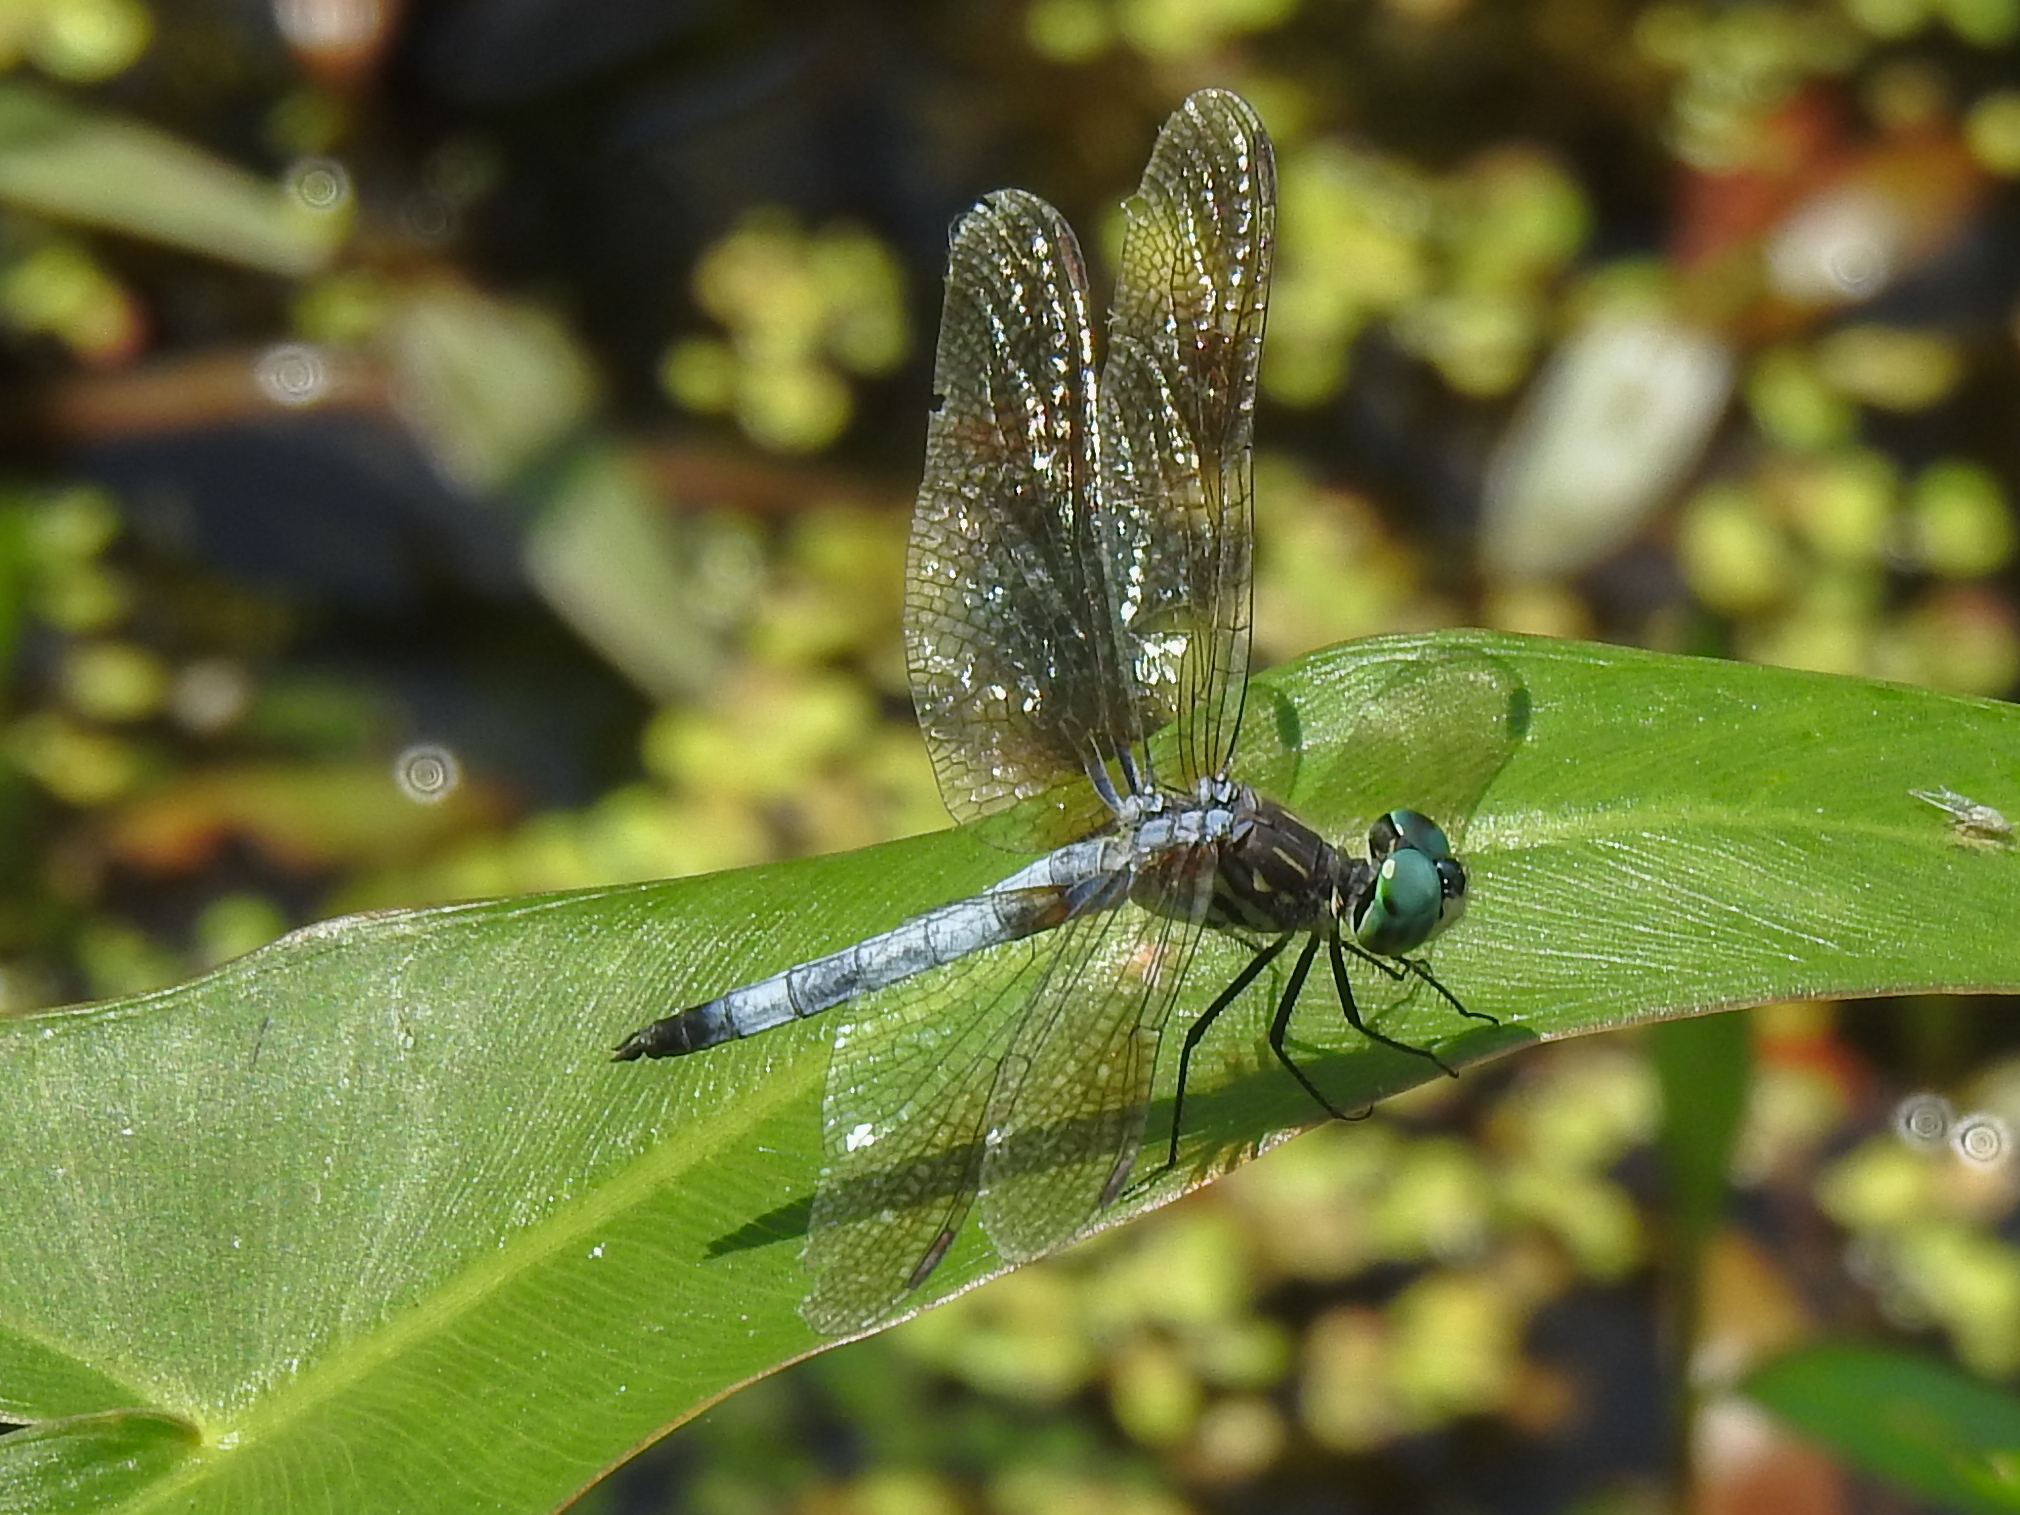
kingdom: Animalia
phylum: Arthropoda
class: Insecta
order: Odonata
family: Libellulidae
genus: Pachydiplax
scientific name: Pachydiplax longipennis
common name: Blue dasher
